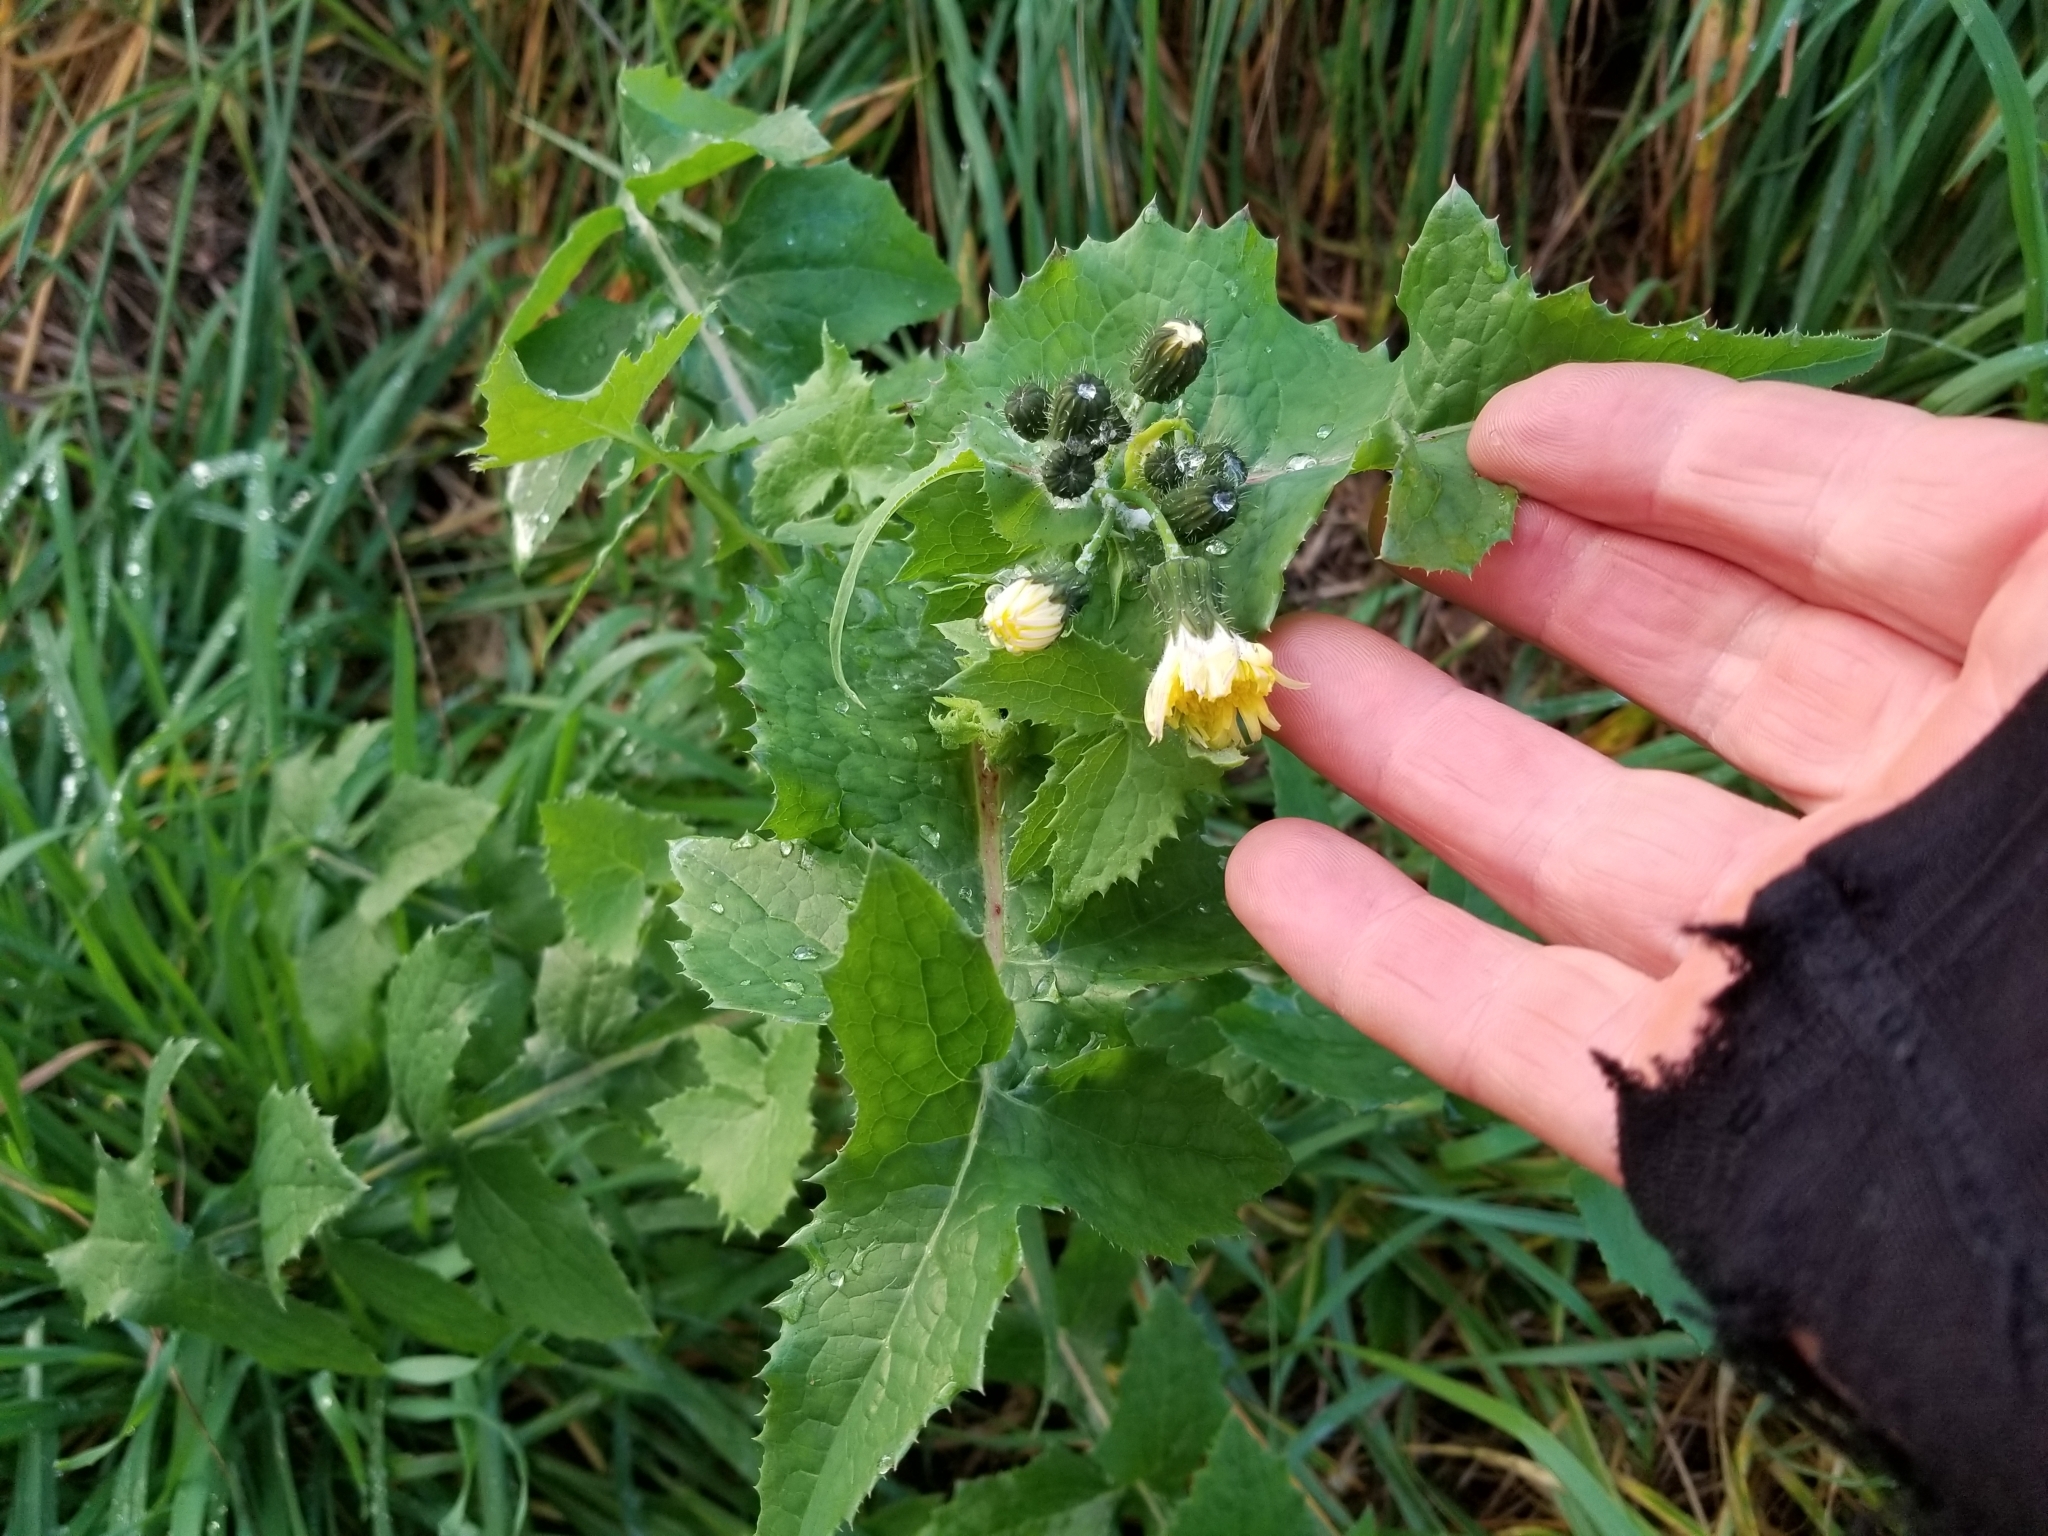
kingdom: Plantae
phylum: Tracheophyta
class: Magnoliopsida
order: Asterales
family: Asteraceae
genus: Sonchus
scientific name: Sonchus oleraceus
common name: Common sowthistle
